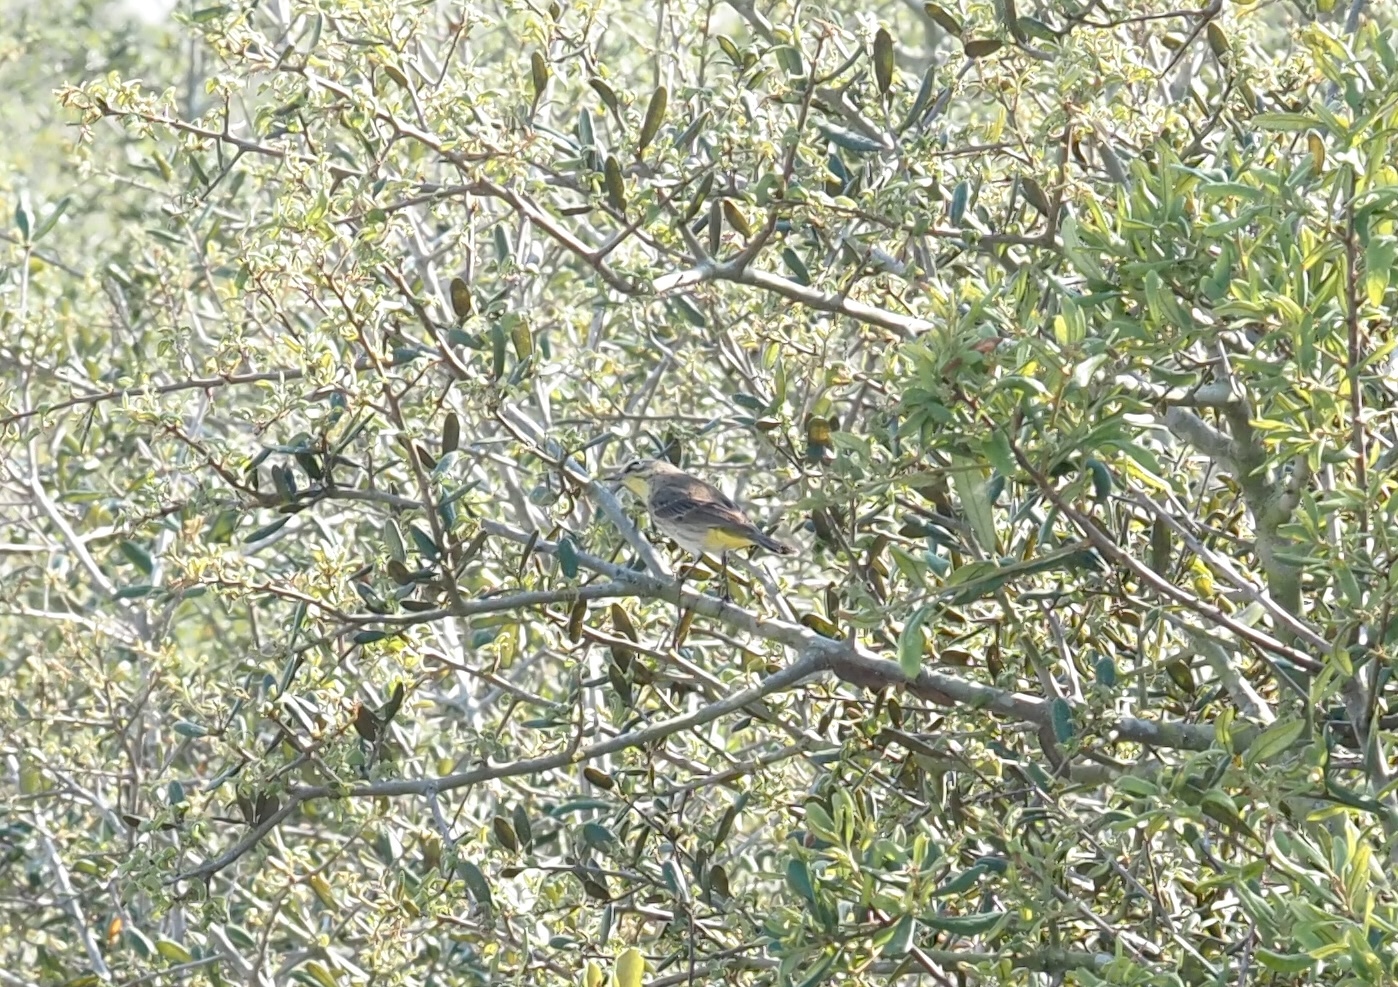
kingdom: Animalia
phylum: Chordata
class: Aves
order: Passeriformes
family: Parulidae
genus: Setophaga
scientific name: Setophaga coronata
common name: Myrtle warbler
